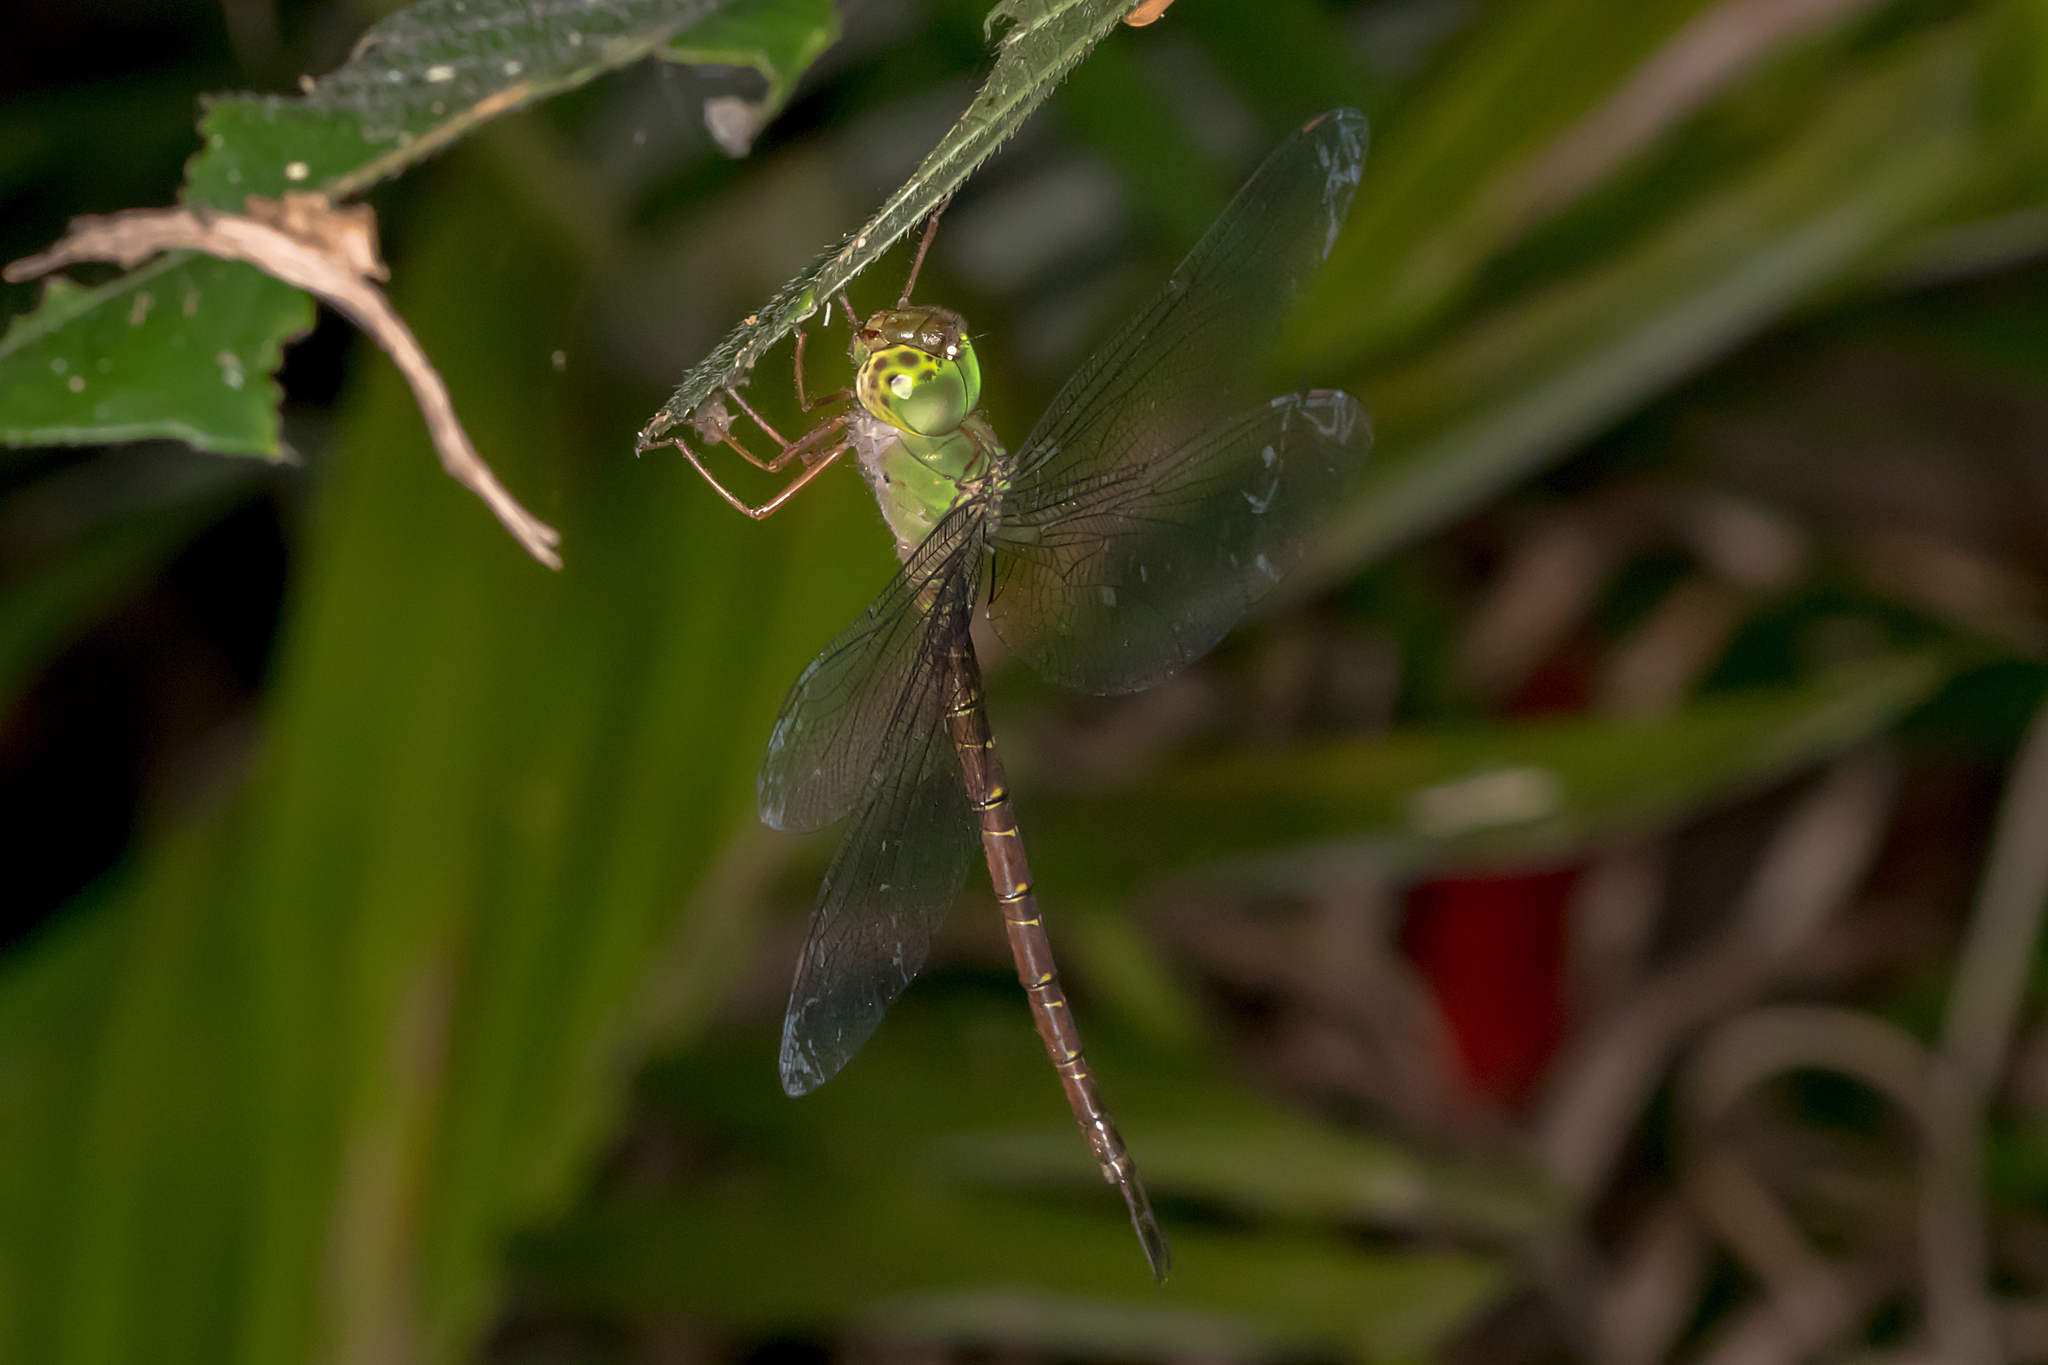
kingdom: Animalia
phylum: Arthropoda
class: Insecta
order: Odonata
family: Aeshnidae
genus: Gynacantha
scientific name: Gynacantha rosenbergi
